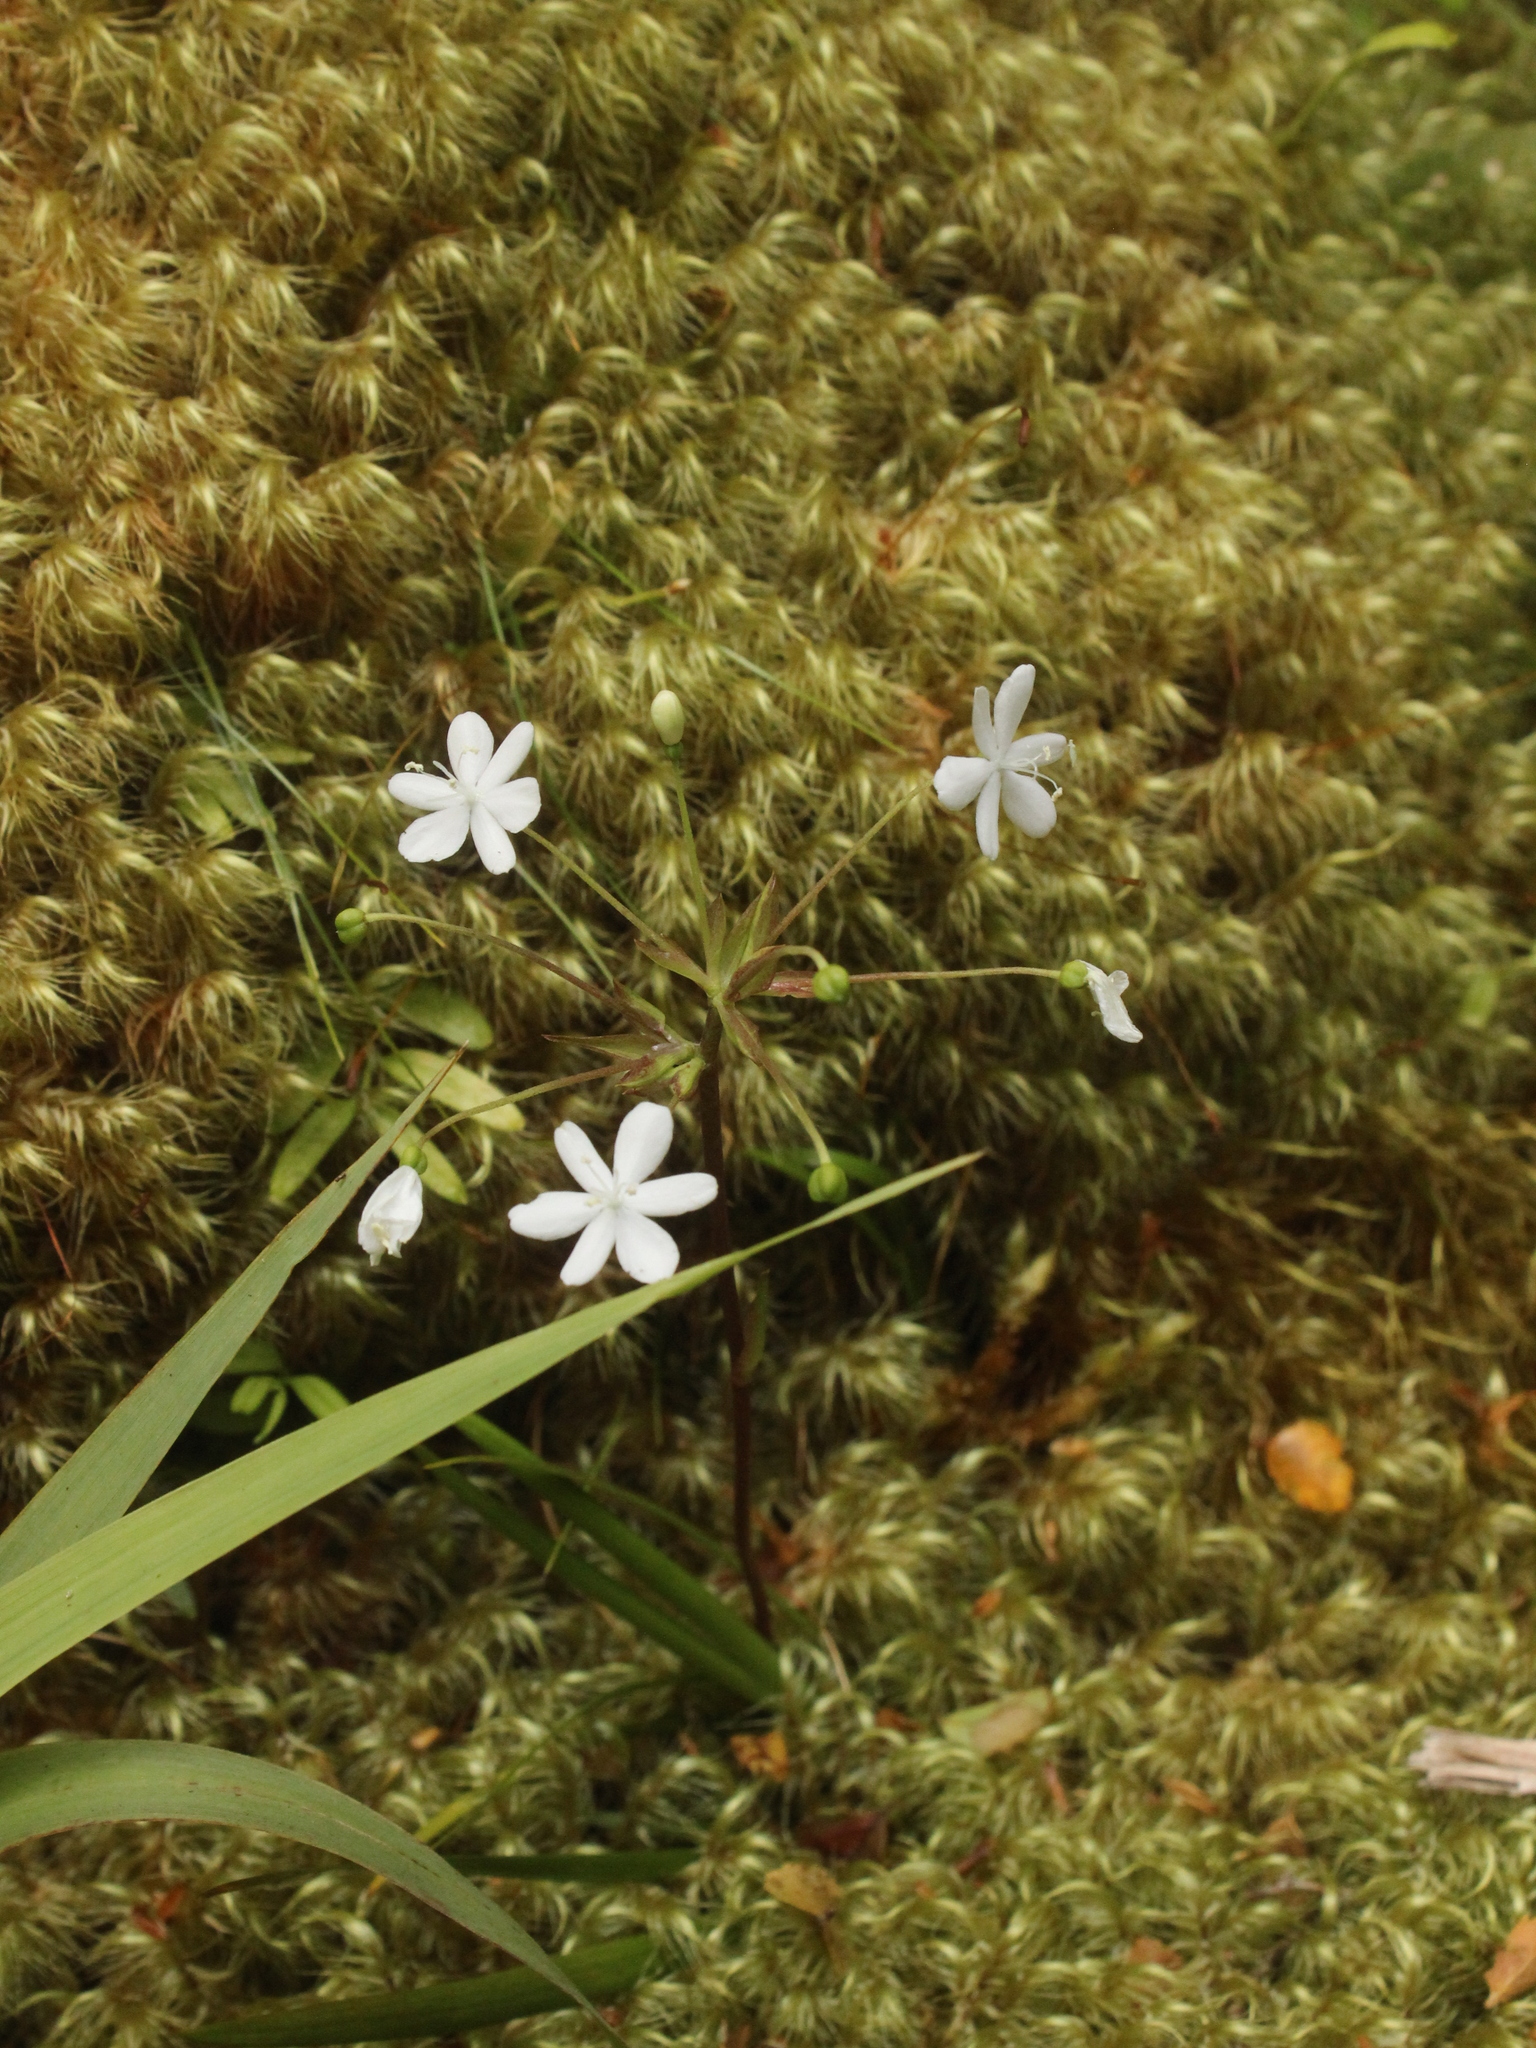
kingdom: Plantae
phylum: Tracheophyta
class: Liliopsida
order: Asparagales
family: Iridaceae
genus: Libertia
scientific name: Libertia micrantha
